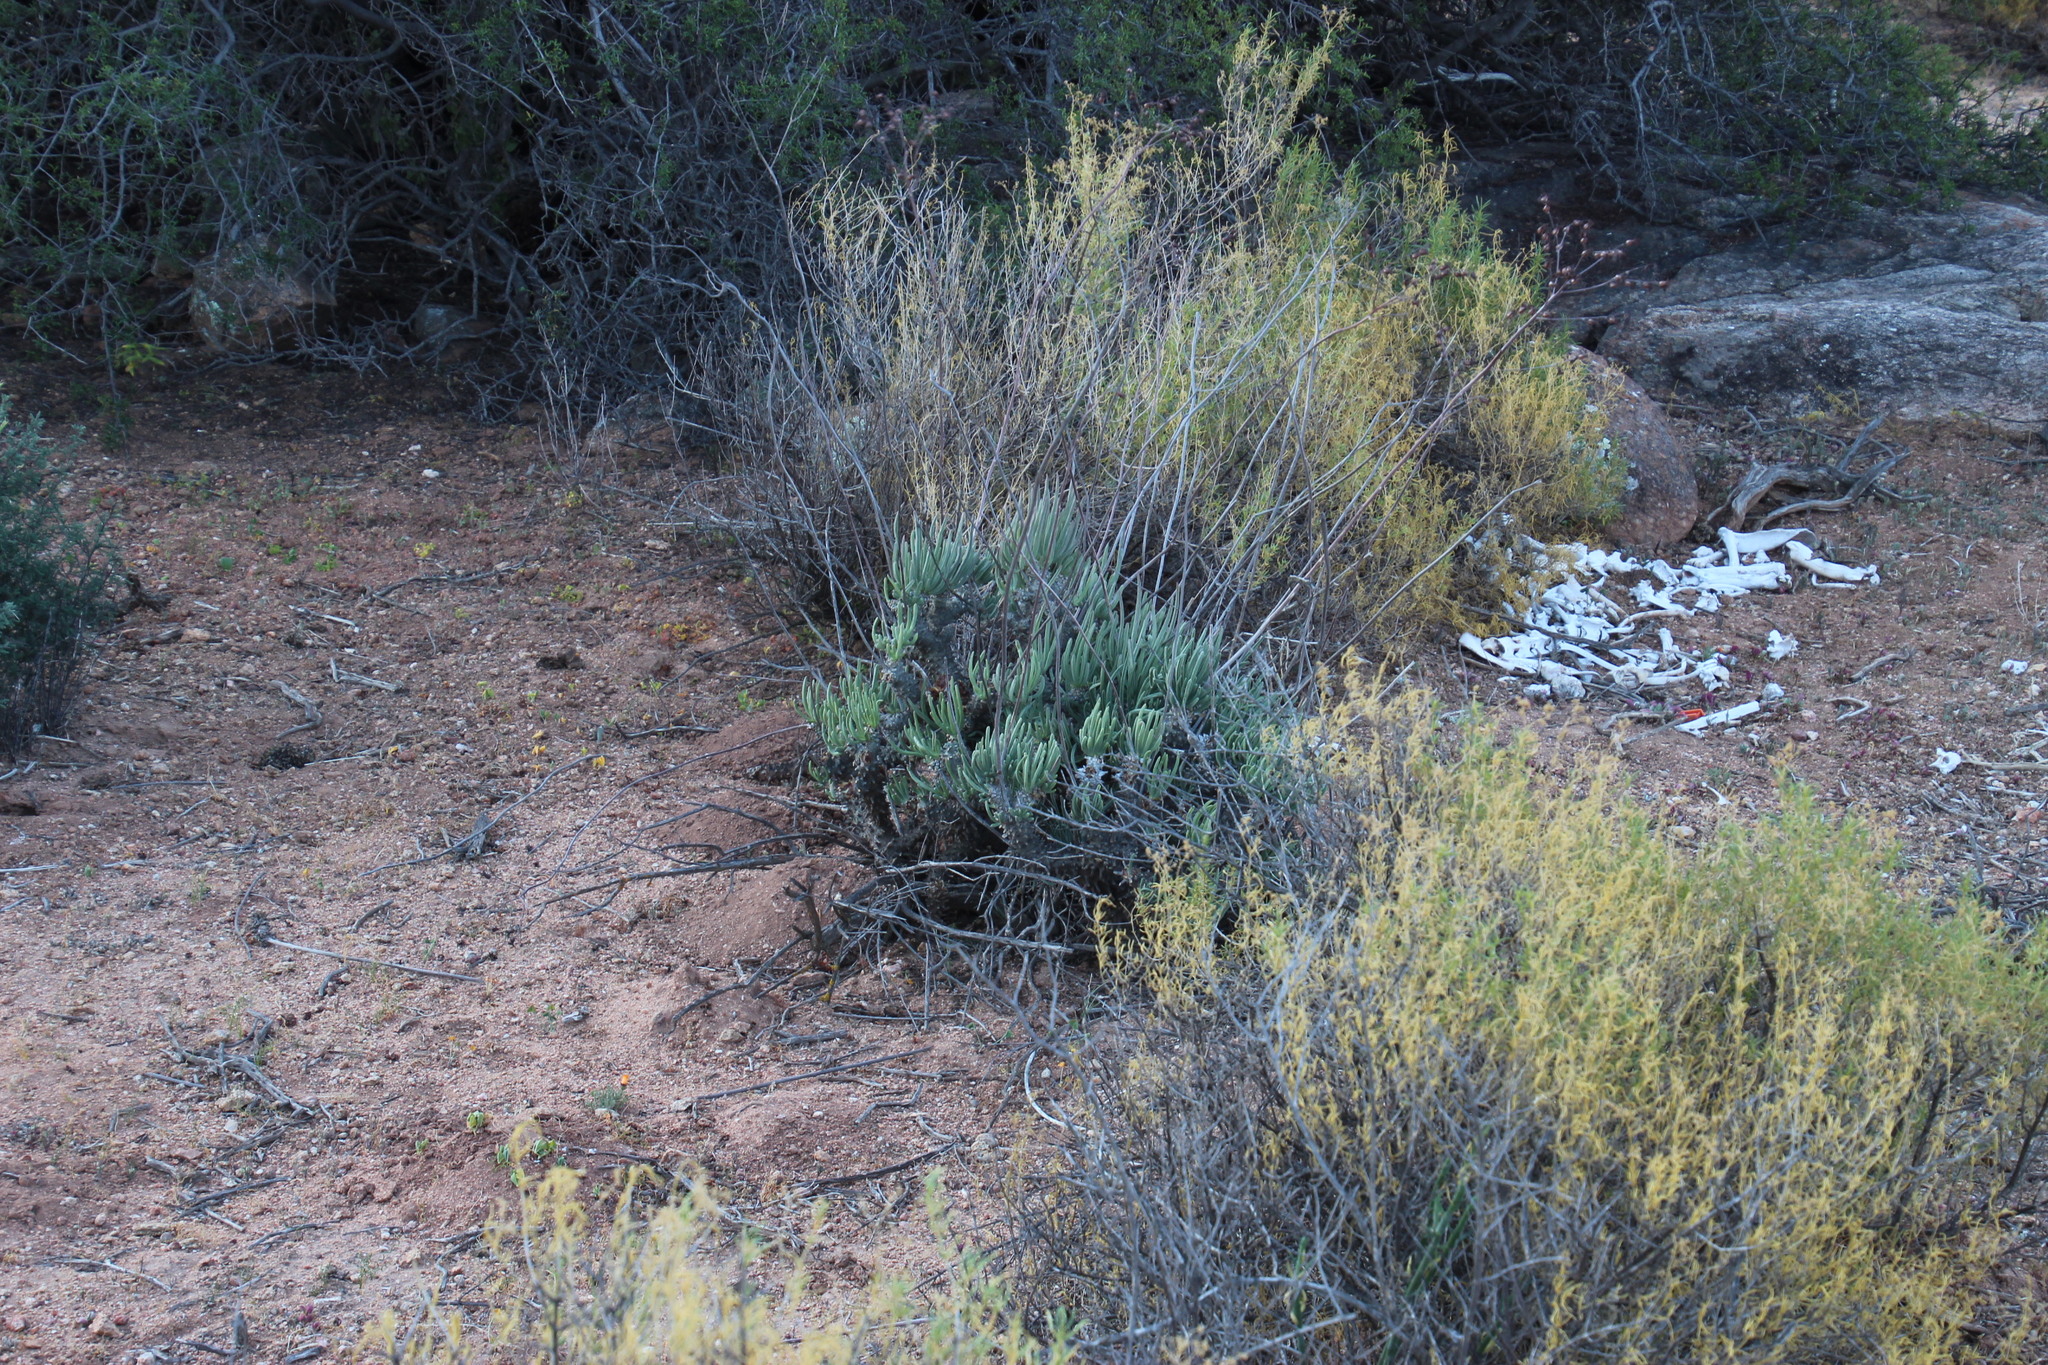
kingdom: Plantae
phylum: Tracheophyta
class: Magnoliopsida
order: Saxifragales
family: Crassulaceae
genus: Tylecodon
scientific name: Tylecodon wallichii
